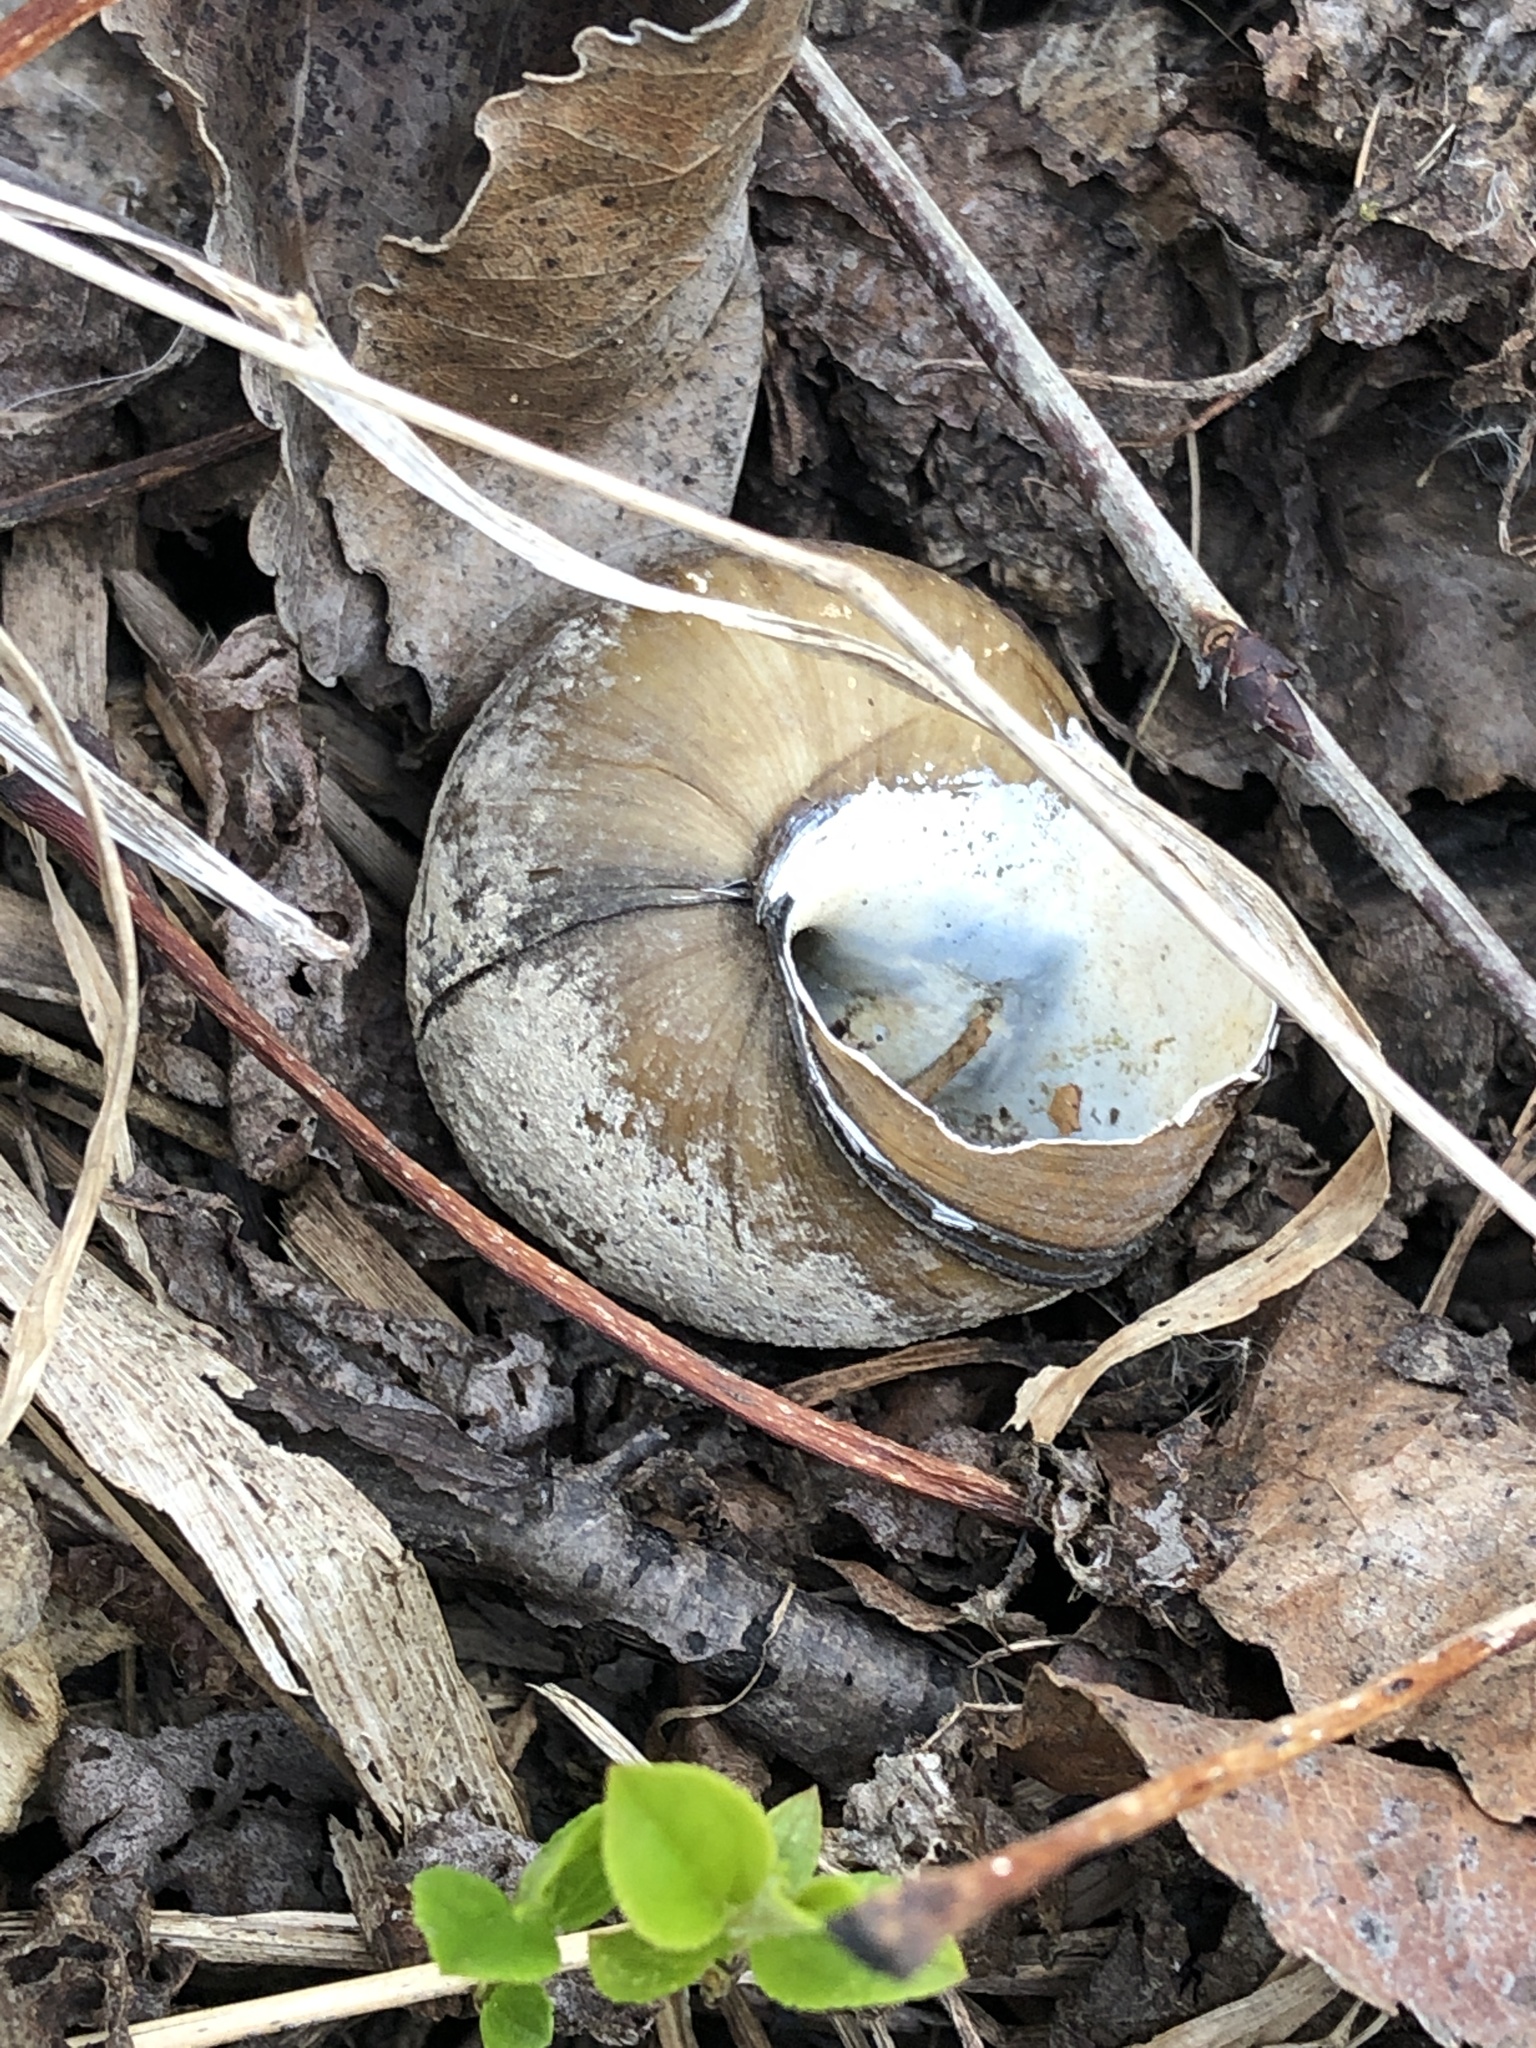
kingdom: Animalia
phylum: Mollusca
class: Gastropoda
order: Architaenioglossa
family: Viviparidae
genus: Cipangopaludina
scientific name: Cipangopaludina chinensis
